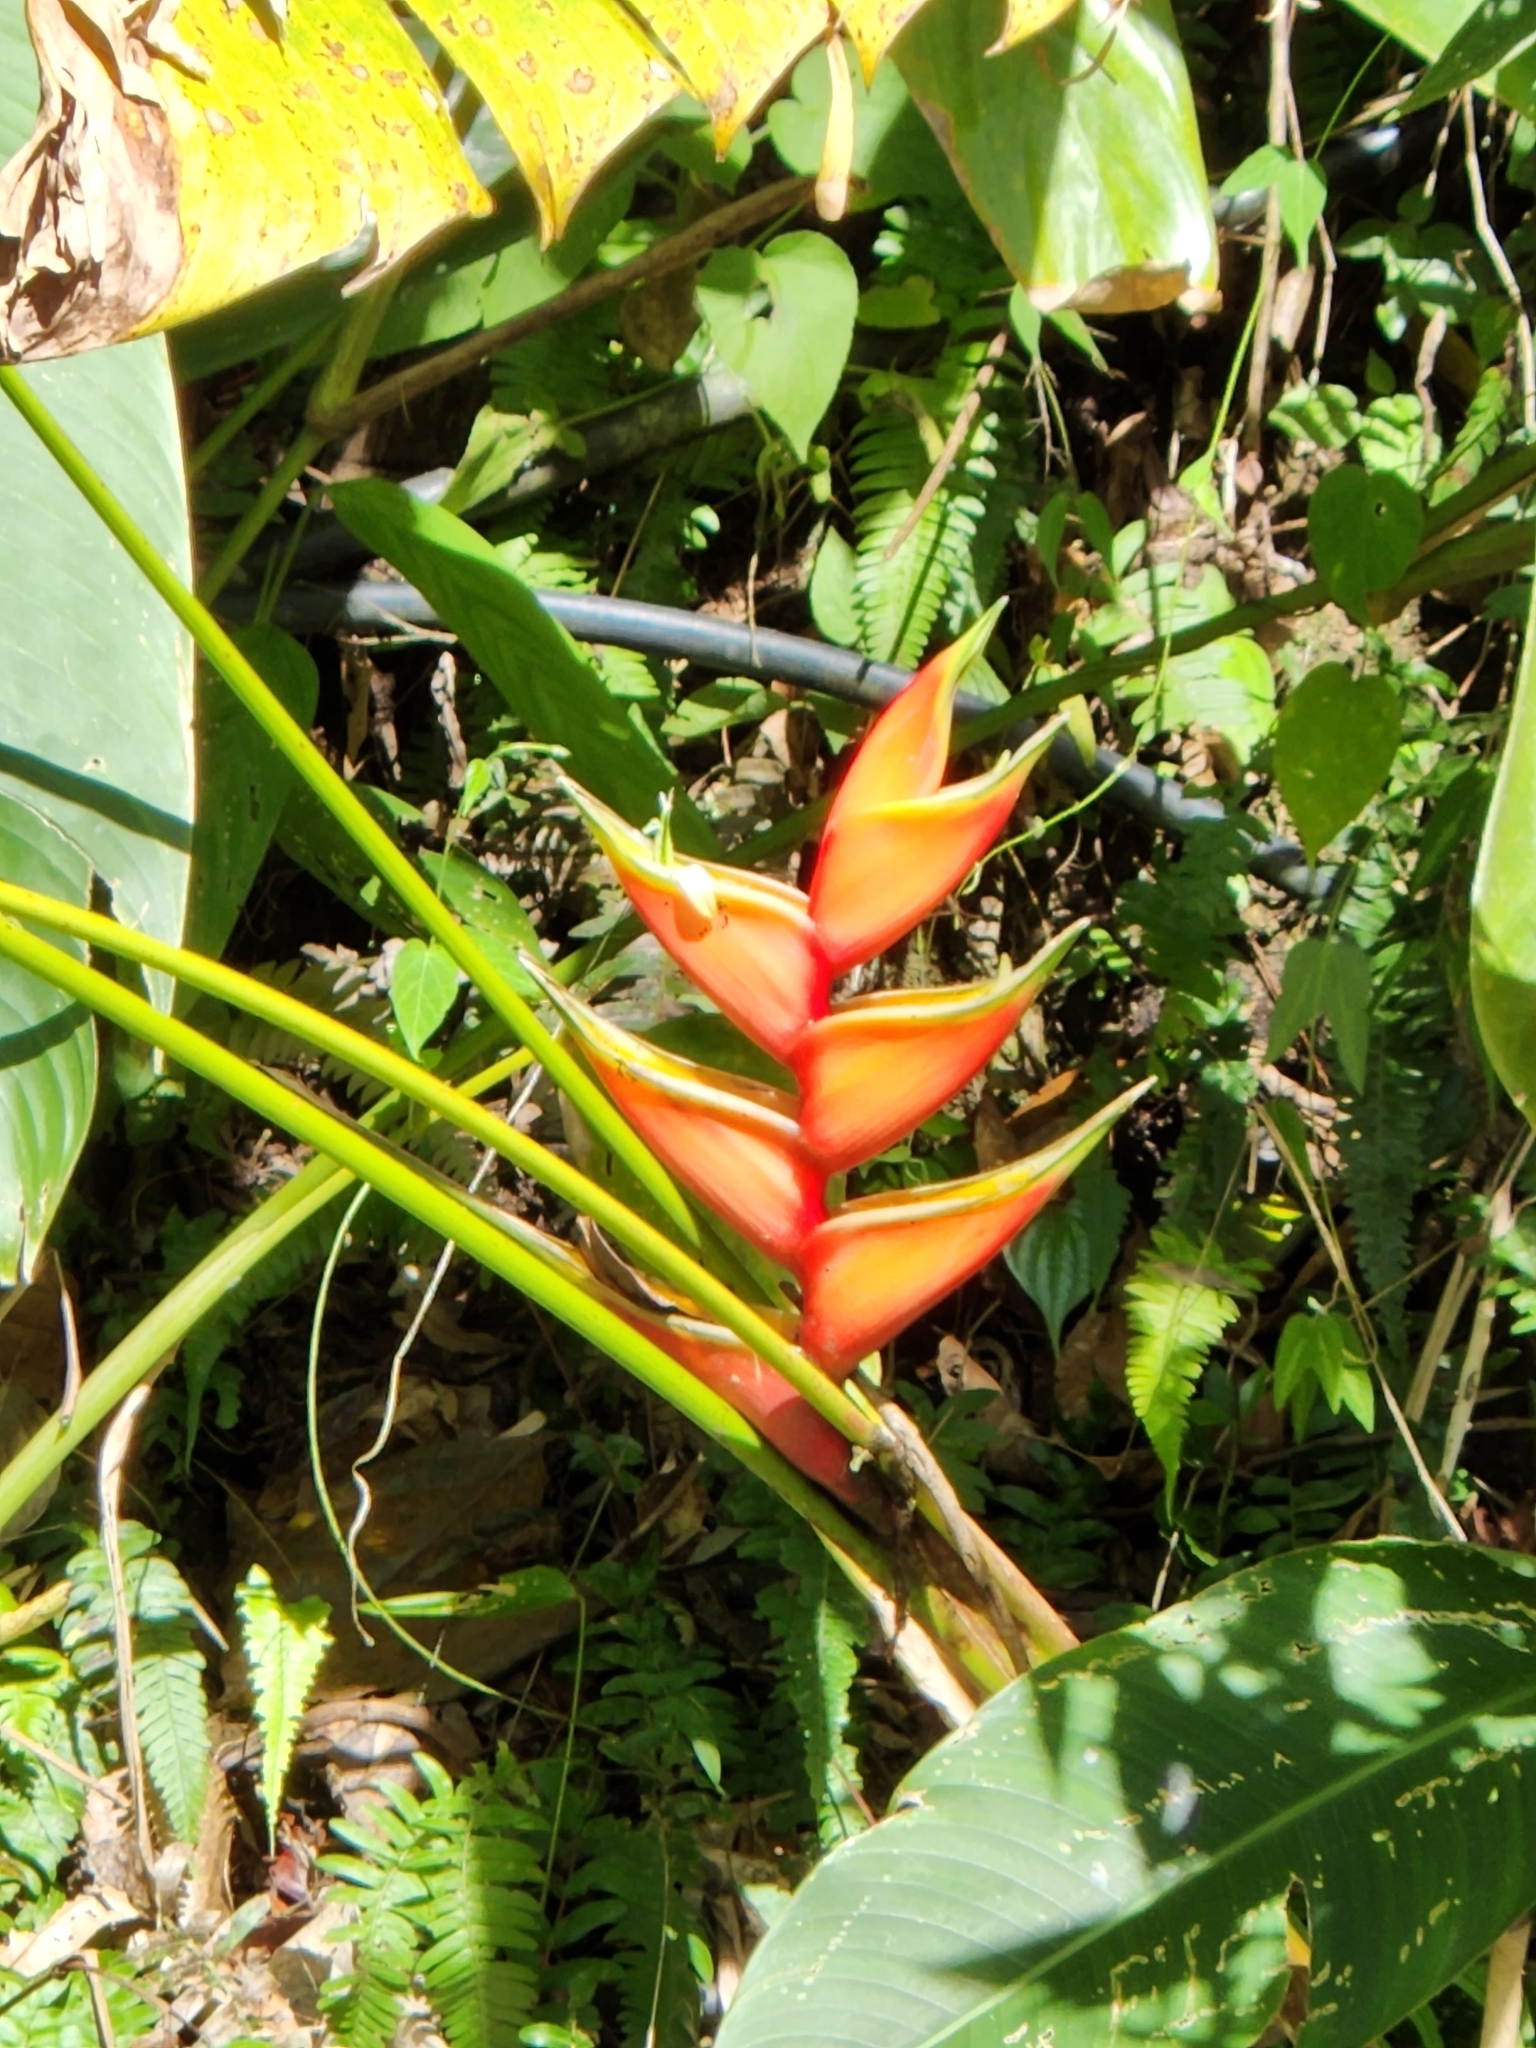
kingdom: Plantae
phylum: Tracheophyta
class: Liliopsida
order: Zingiberales
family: Heliconiaceae
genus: Heliconia
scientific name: Heliconia bihai
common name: Macaw flower
